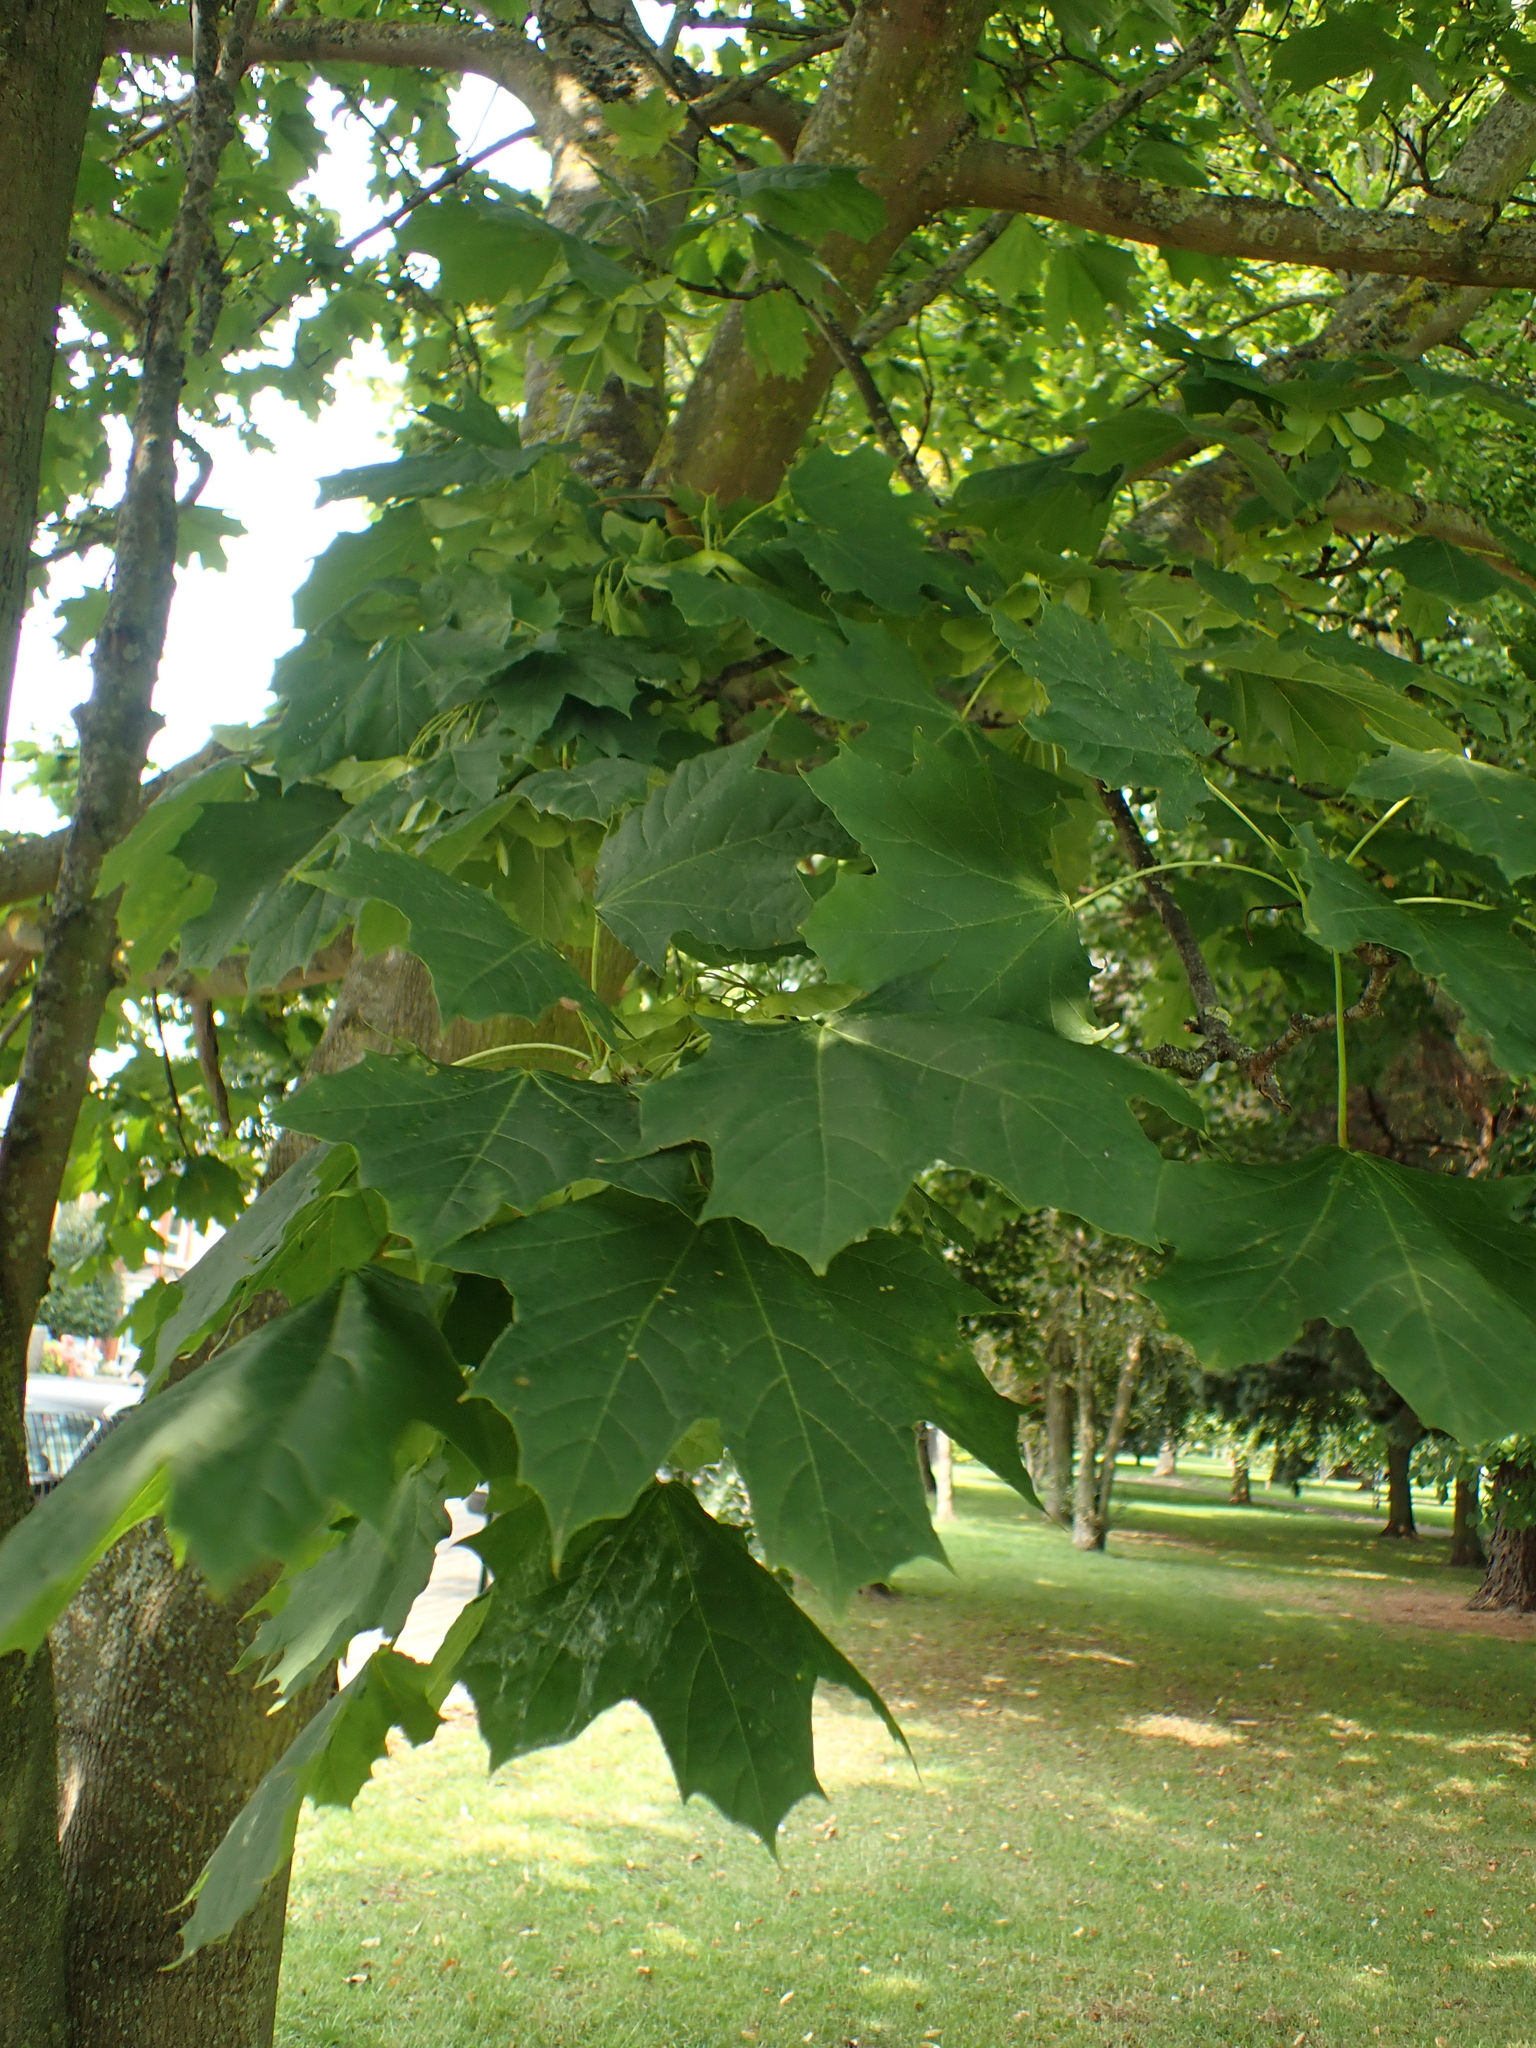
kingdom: Plantae
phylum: Tracheophyta
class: Magnoliopsida
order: Sapindales
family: Sapindaceae
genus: Acer
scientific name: Acer platanoides
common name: Norway maple
